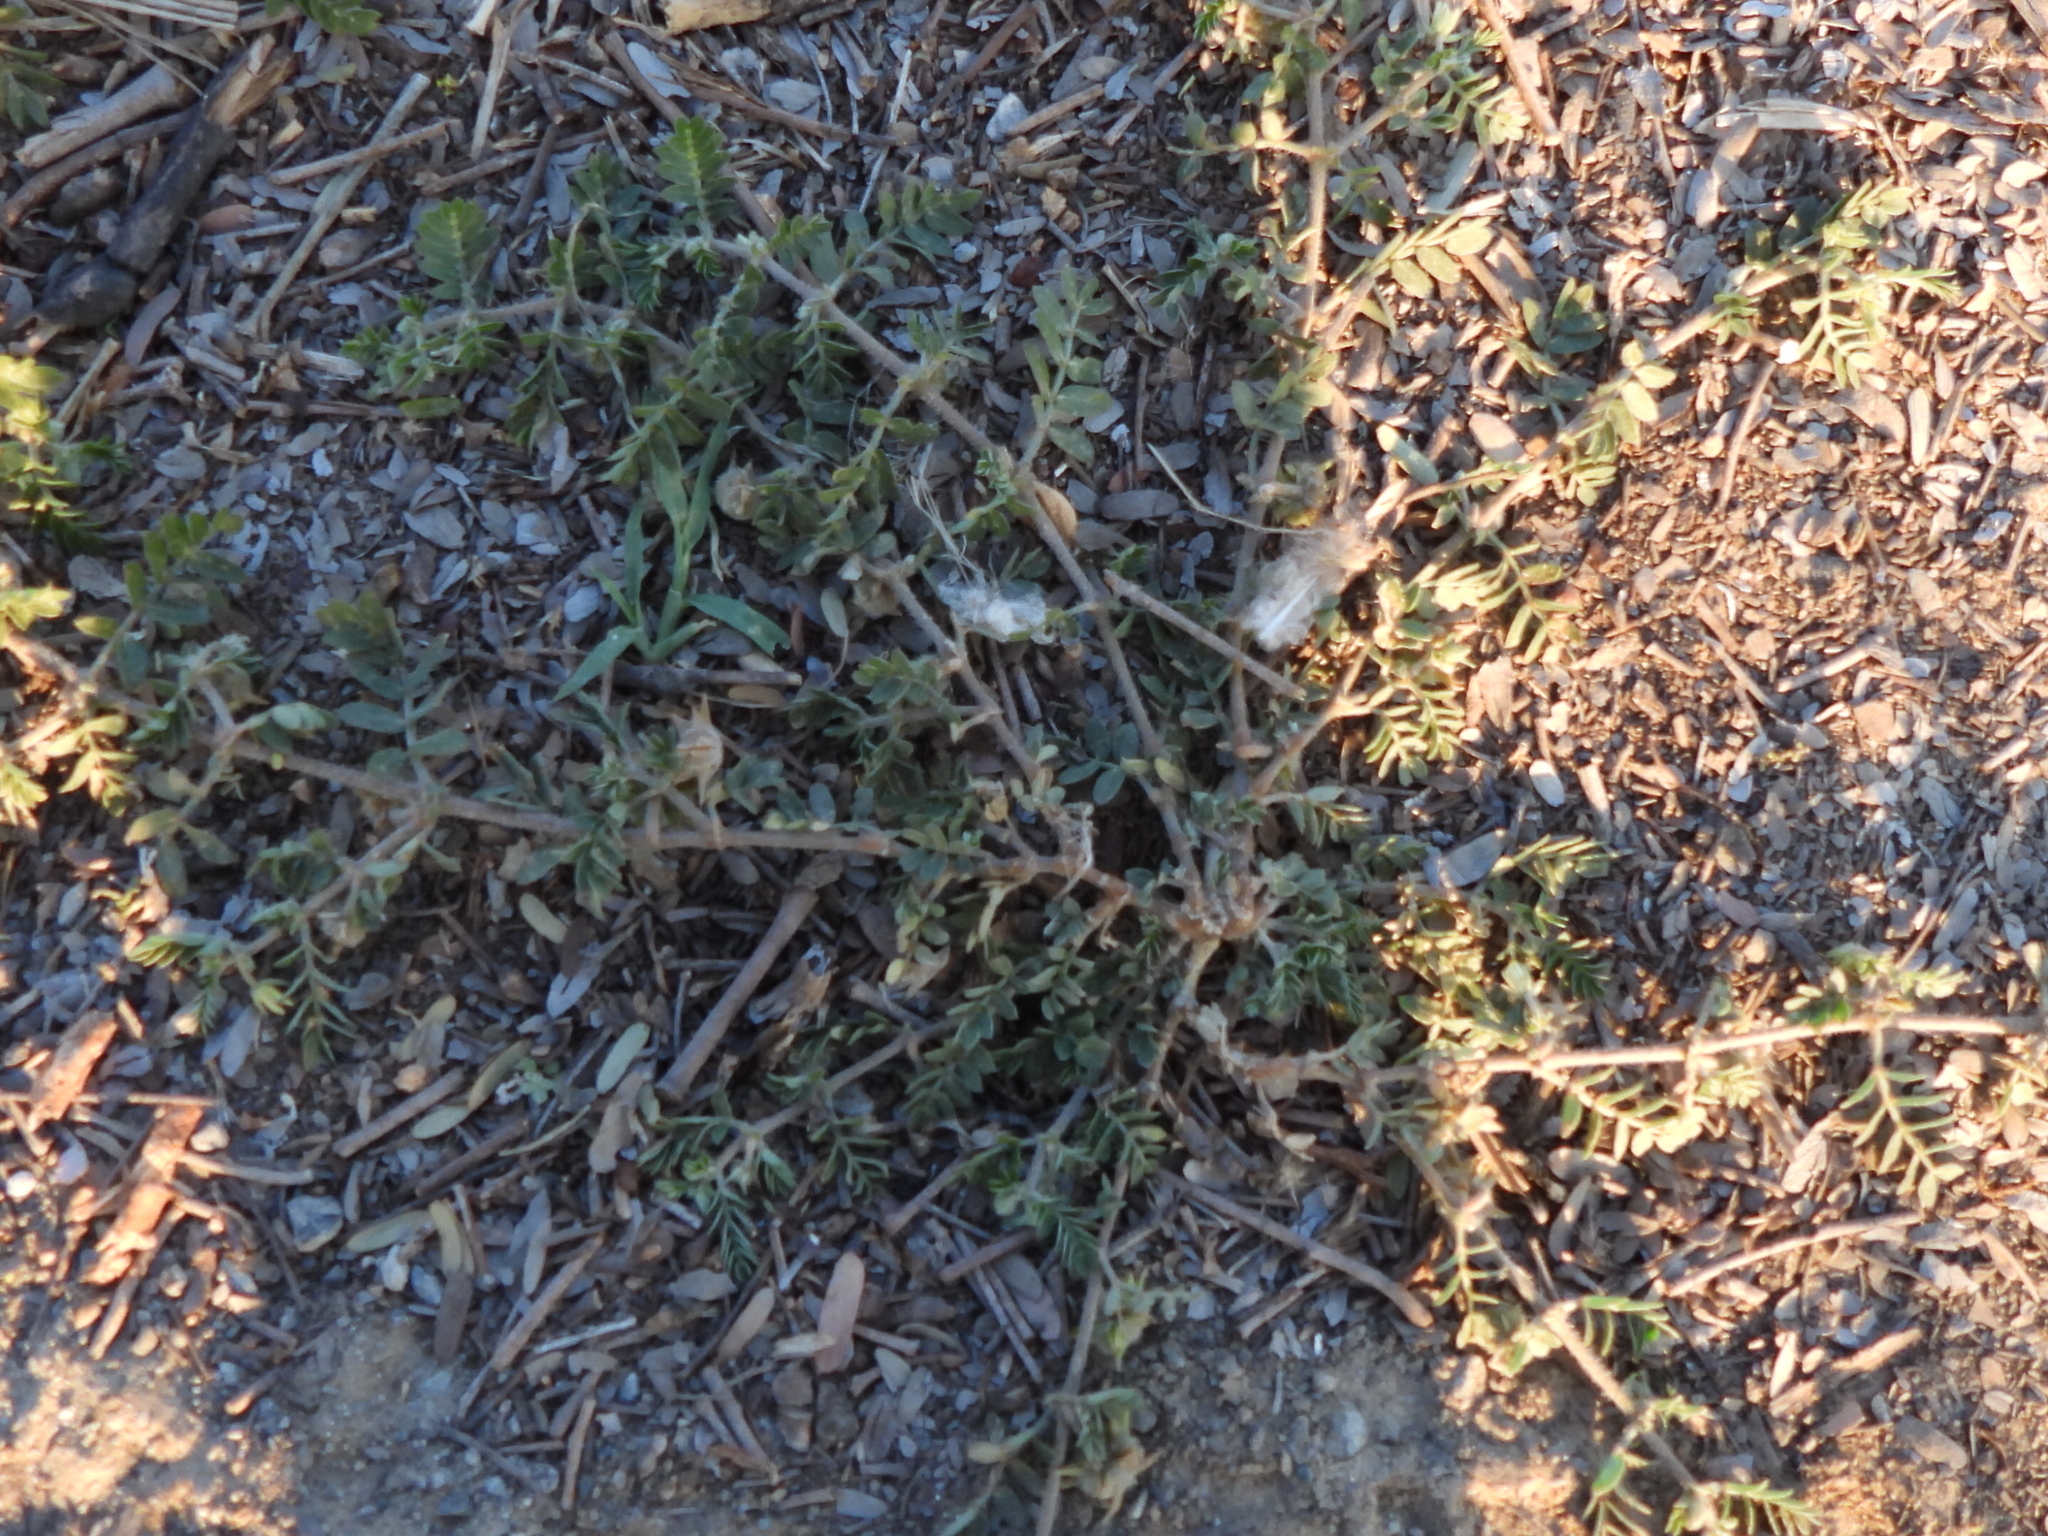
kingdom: Plantae
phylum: Tracheophyta
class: Magnoliopsida
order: Zygophyllales
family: Zygophyllaceae
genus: Tribulus
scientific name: Tribulus terrestris
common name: Puncturevine
